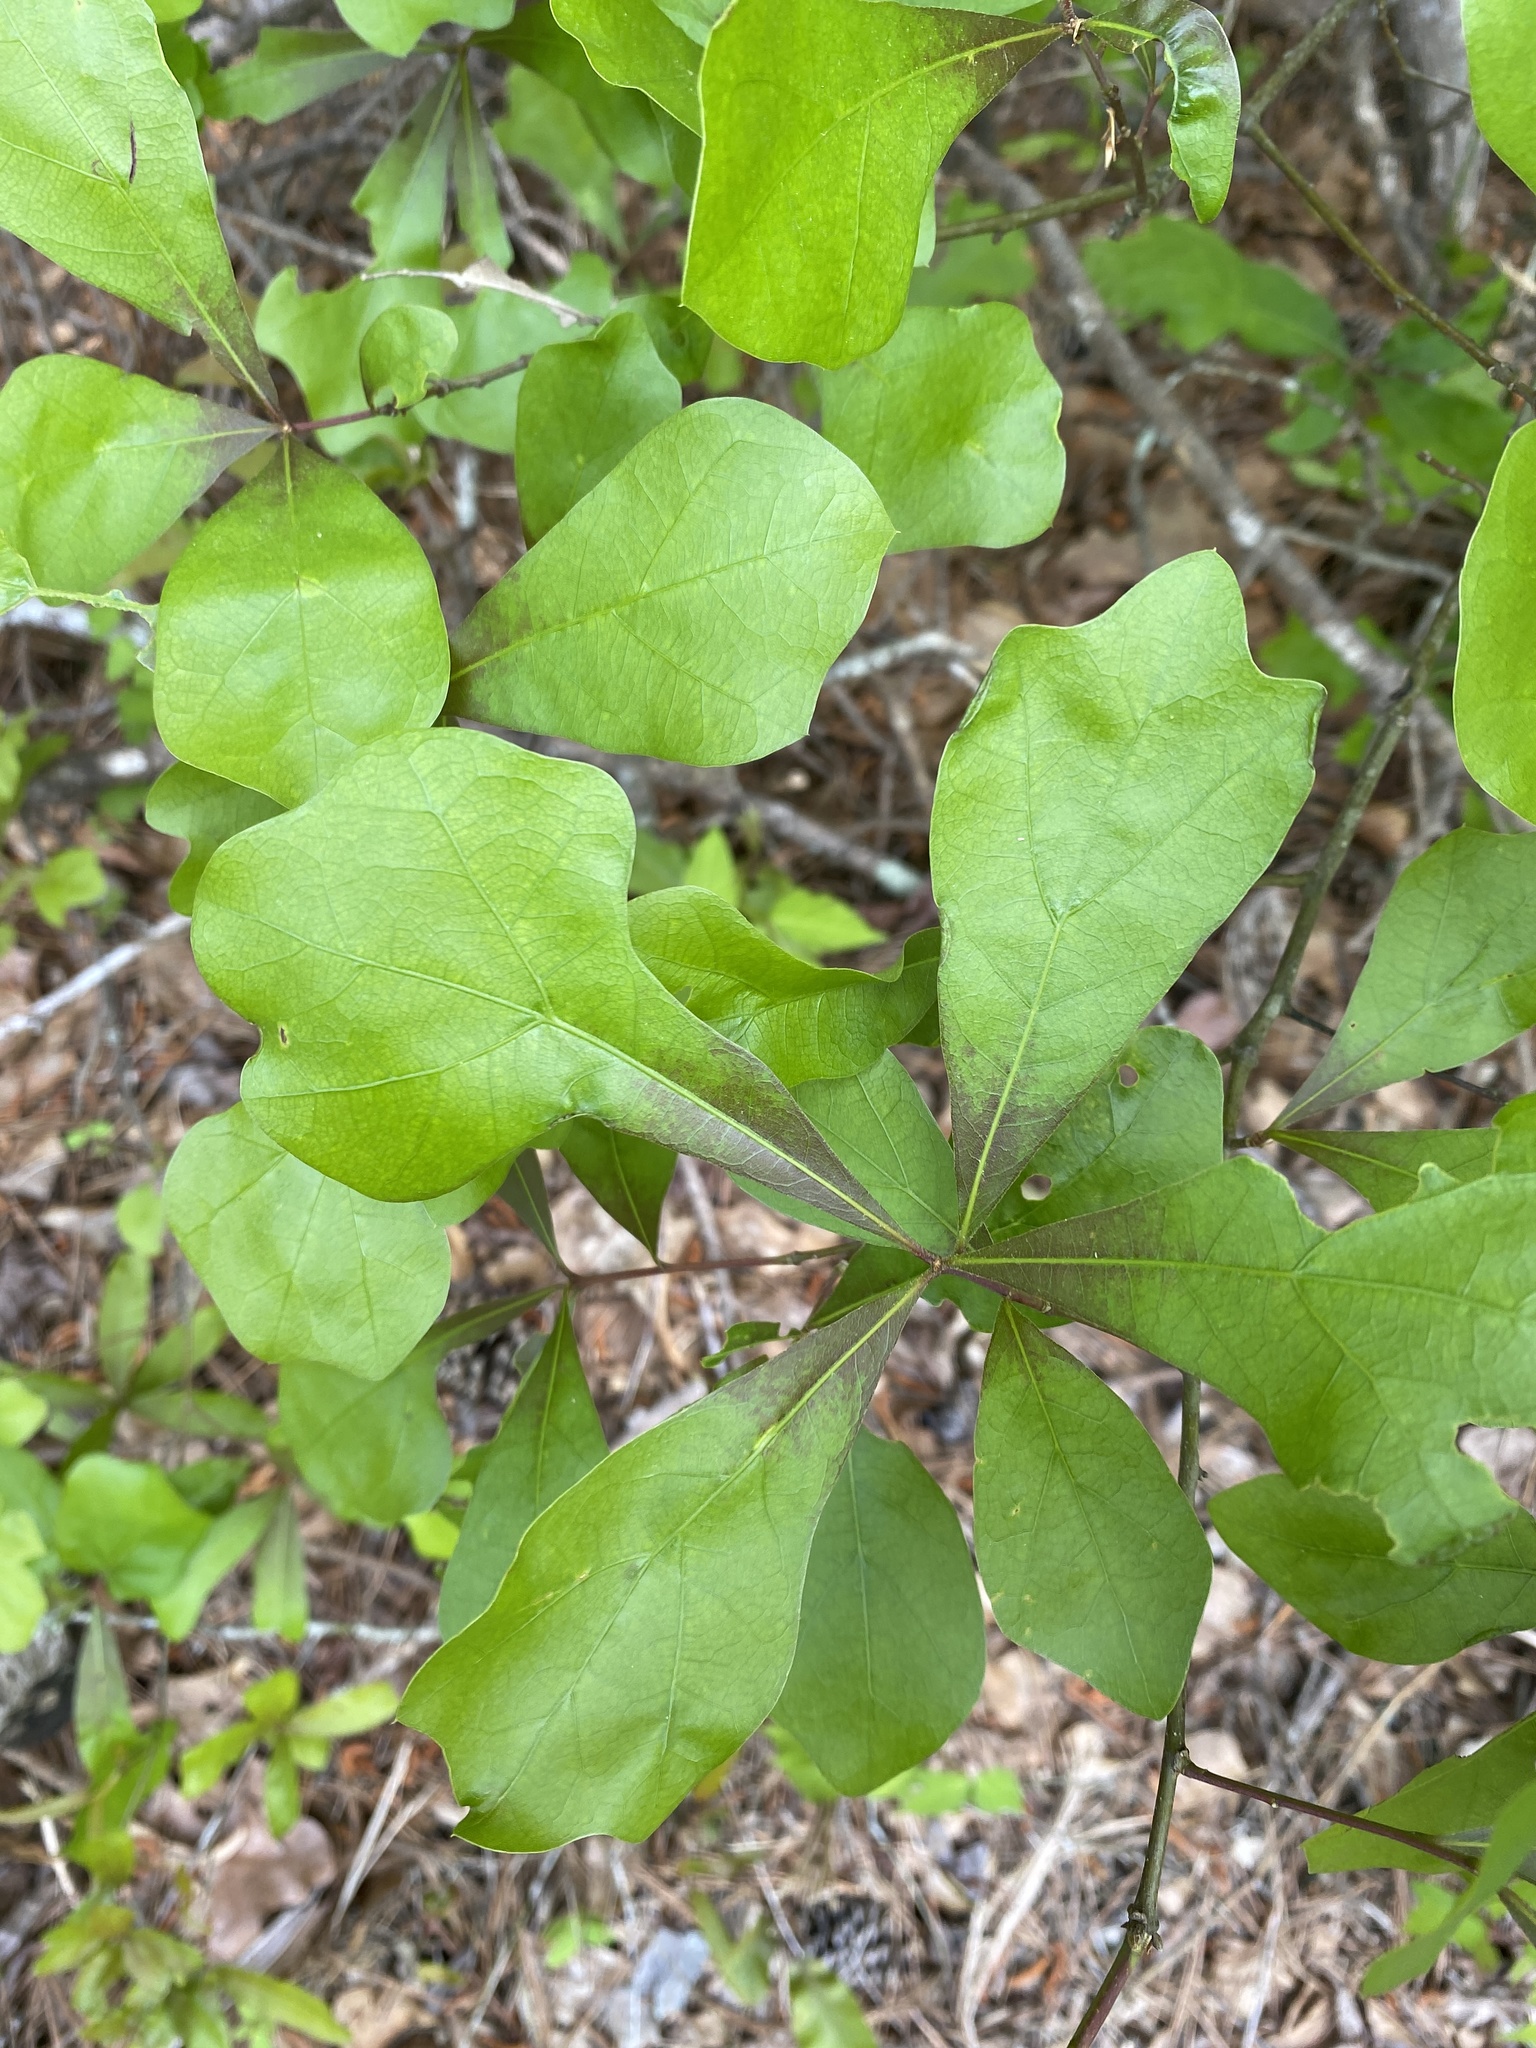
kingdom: Plantae
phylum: Tracheophyta
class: Magnoliopsida
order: Fagales
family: Fagaceae
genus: Quercus
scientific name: Quercus nigra
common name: Water oak
